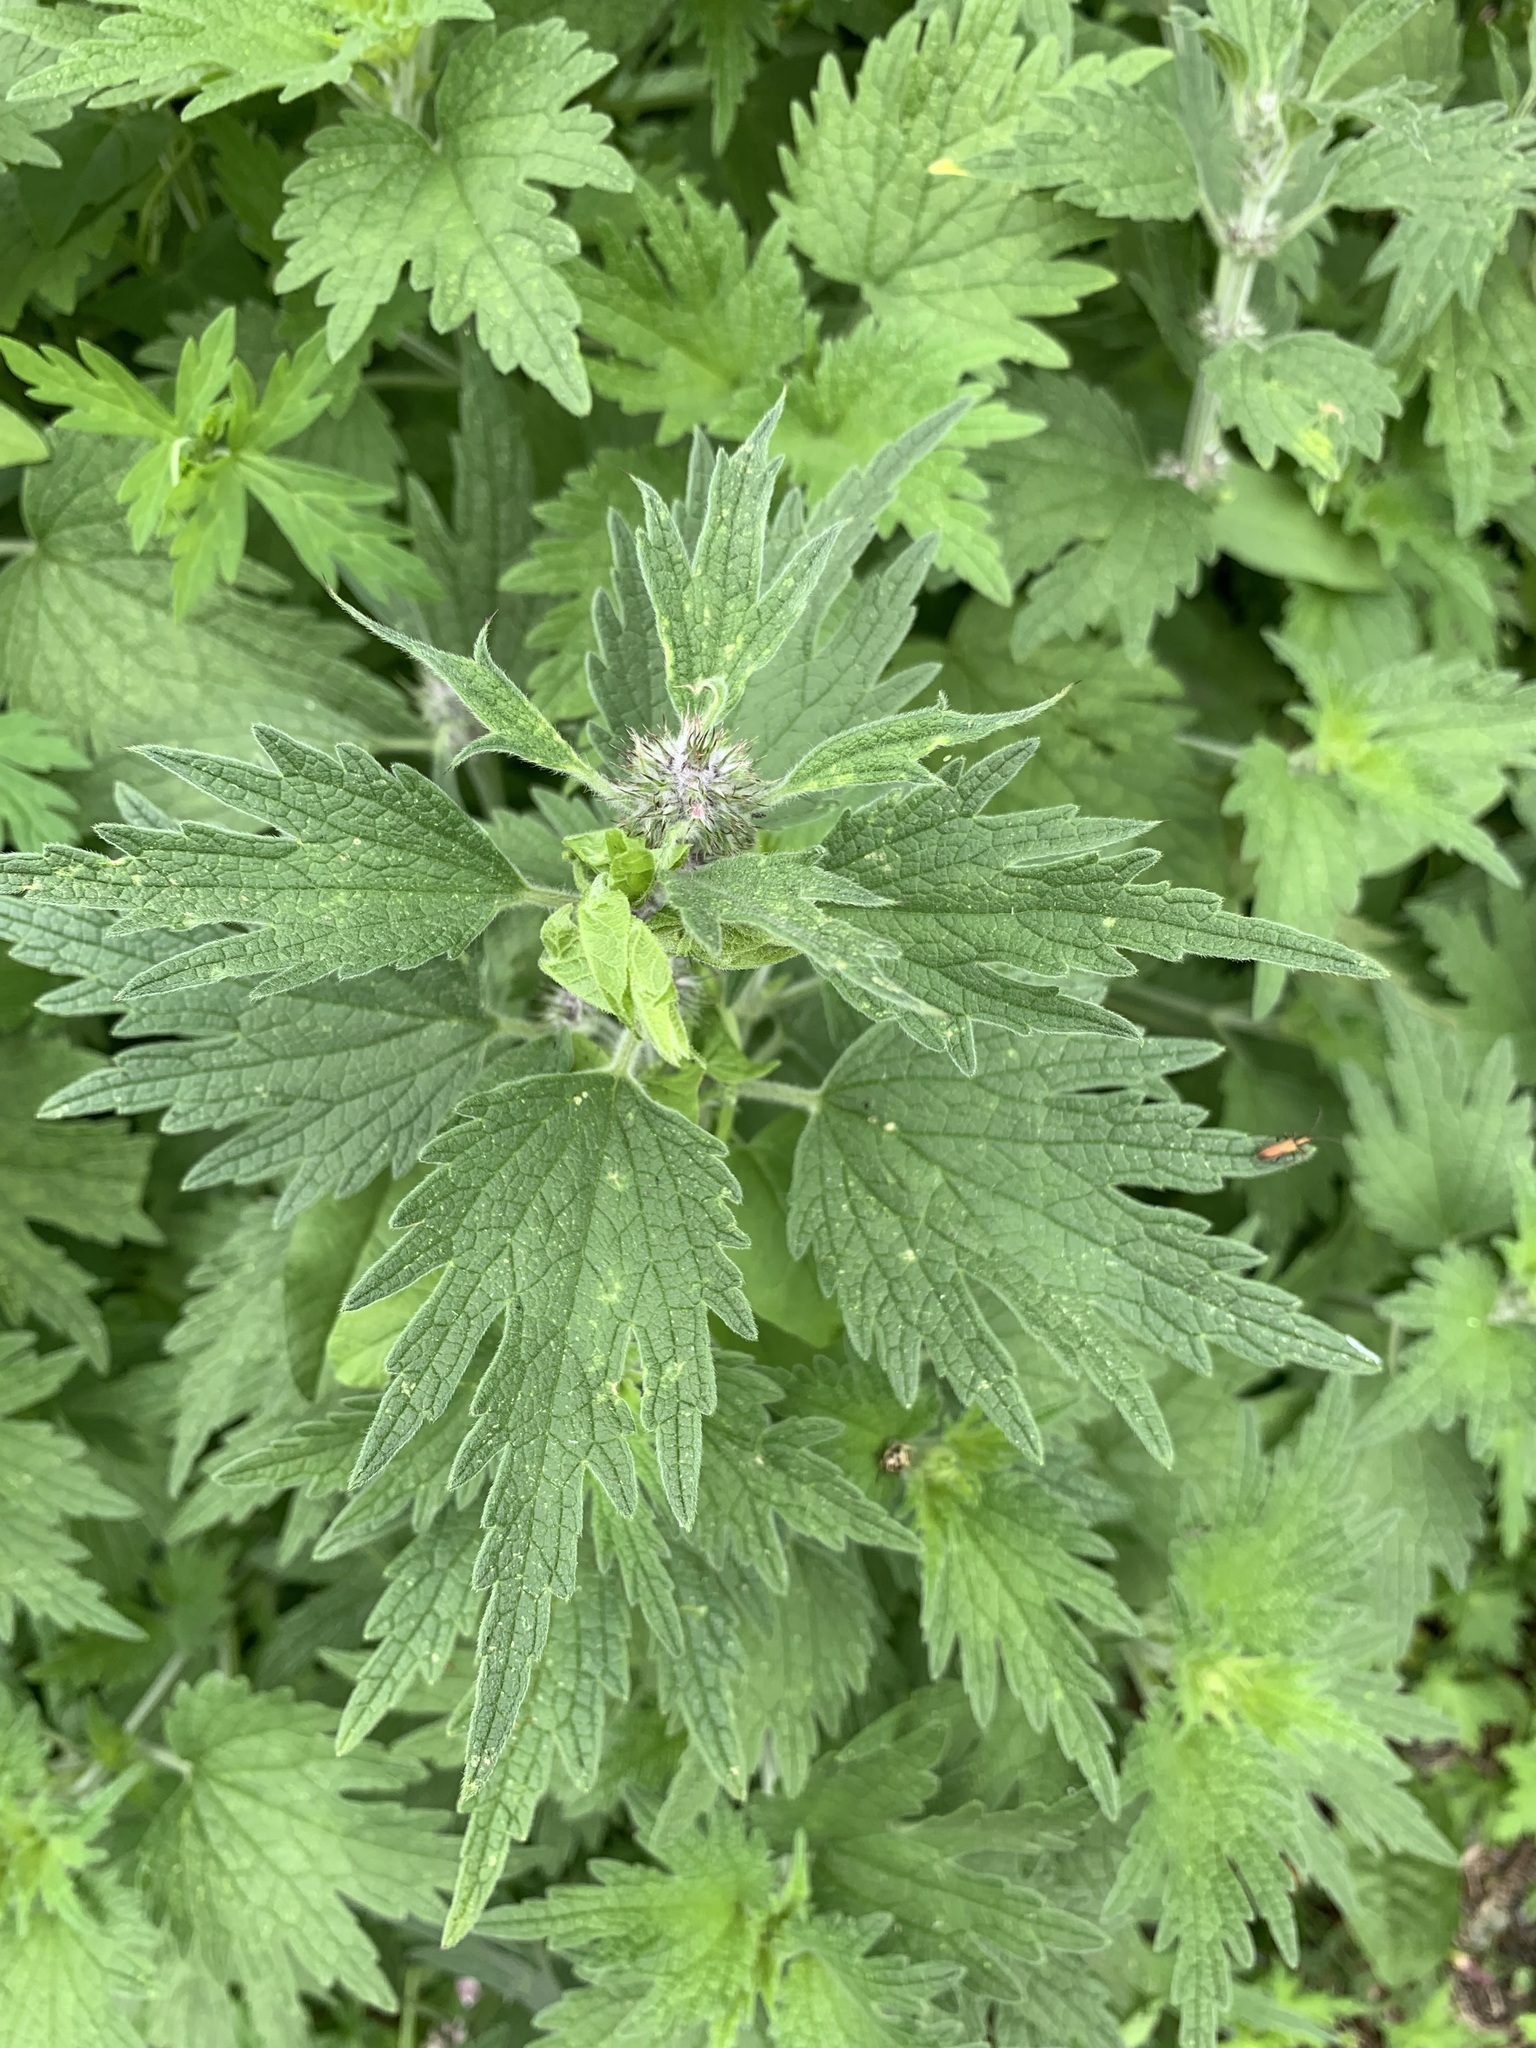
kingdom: Plantae
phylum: Tracheophyta
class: Magnoliopsida
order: Lamiales
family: Lamiaceae
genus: Leonurus
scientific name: Leonurus quinquelobatus
